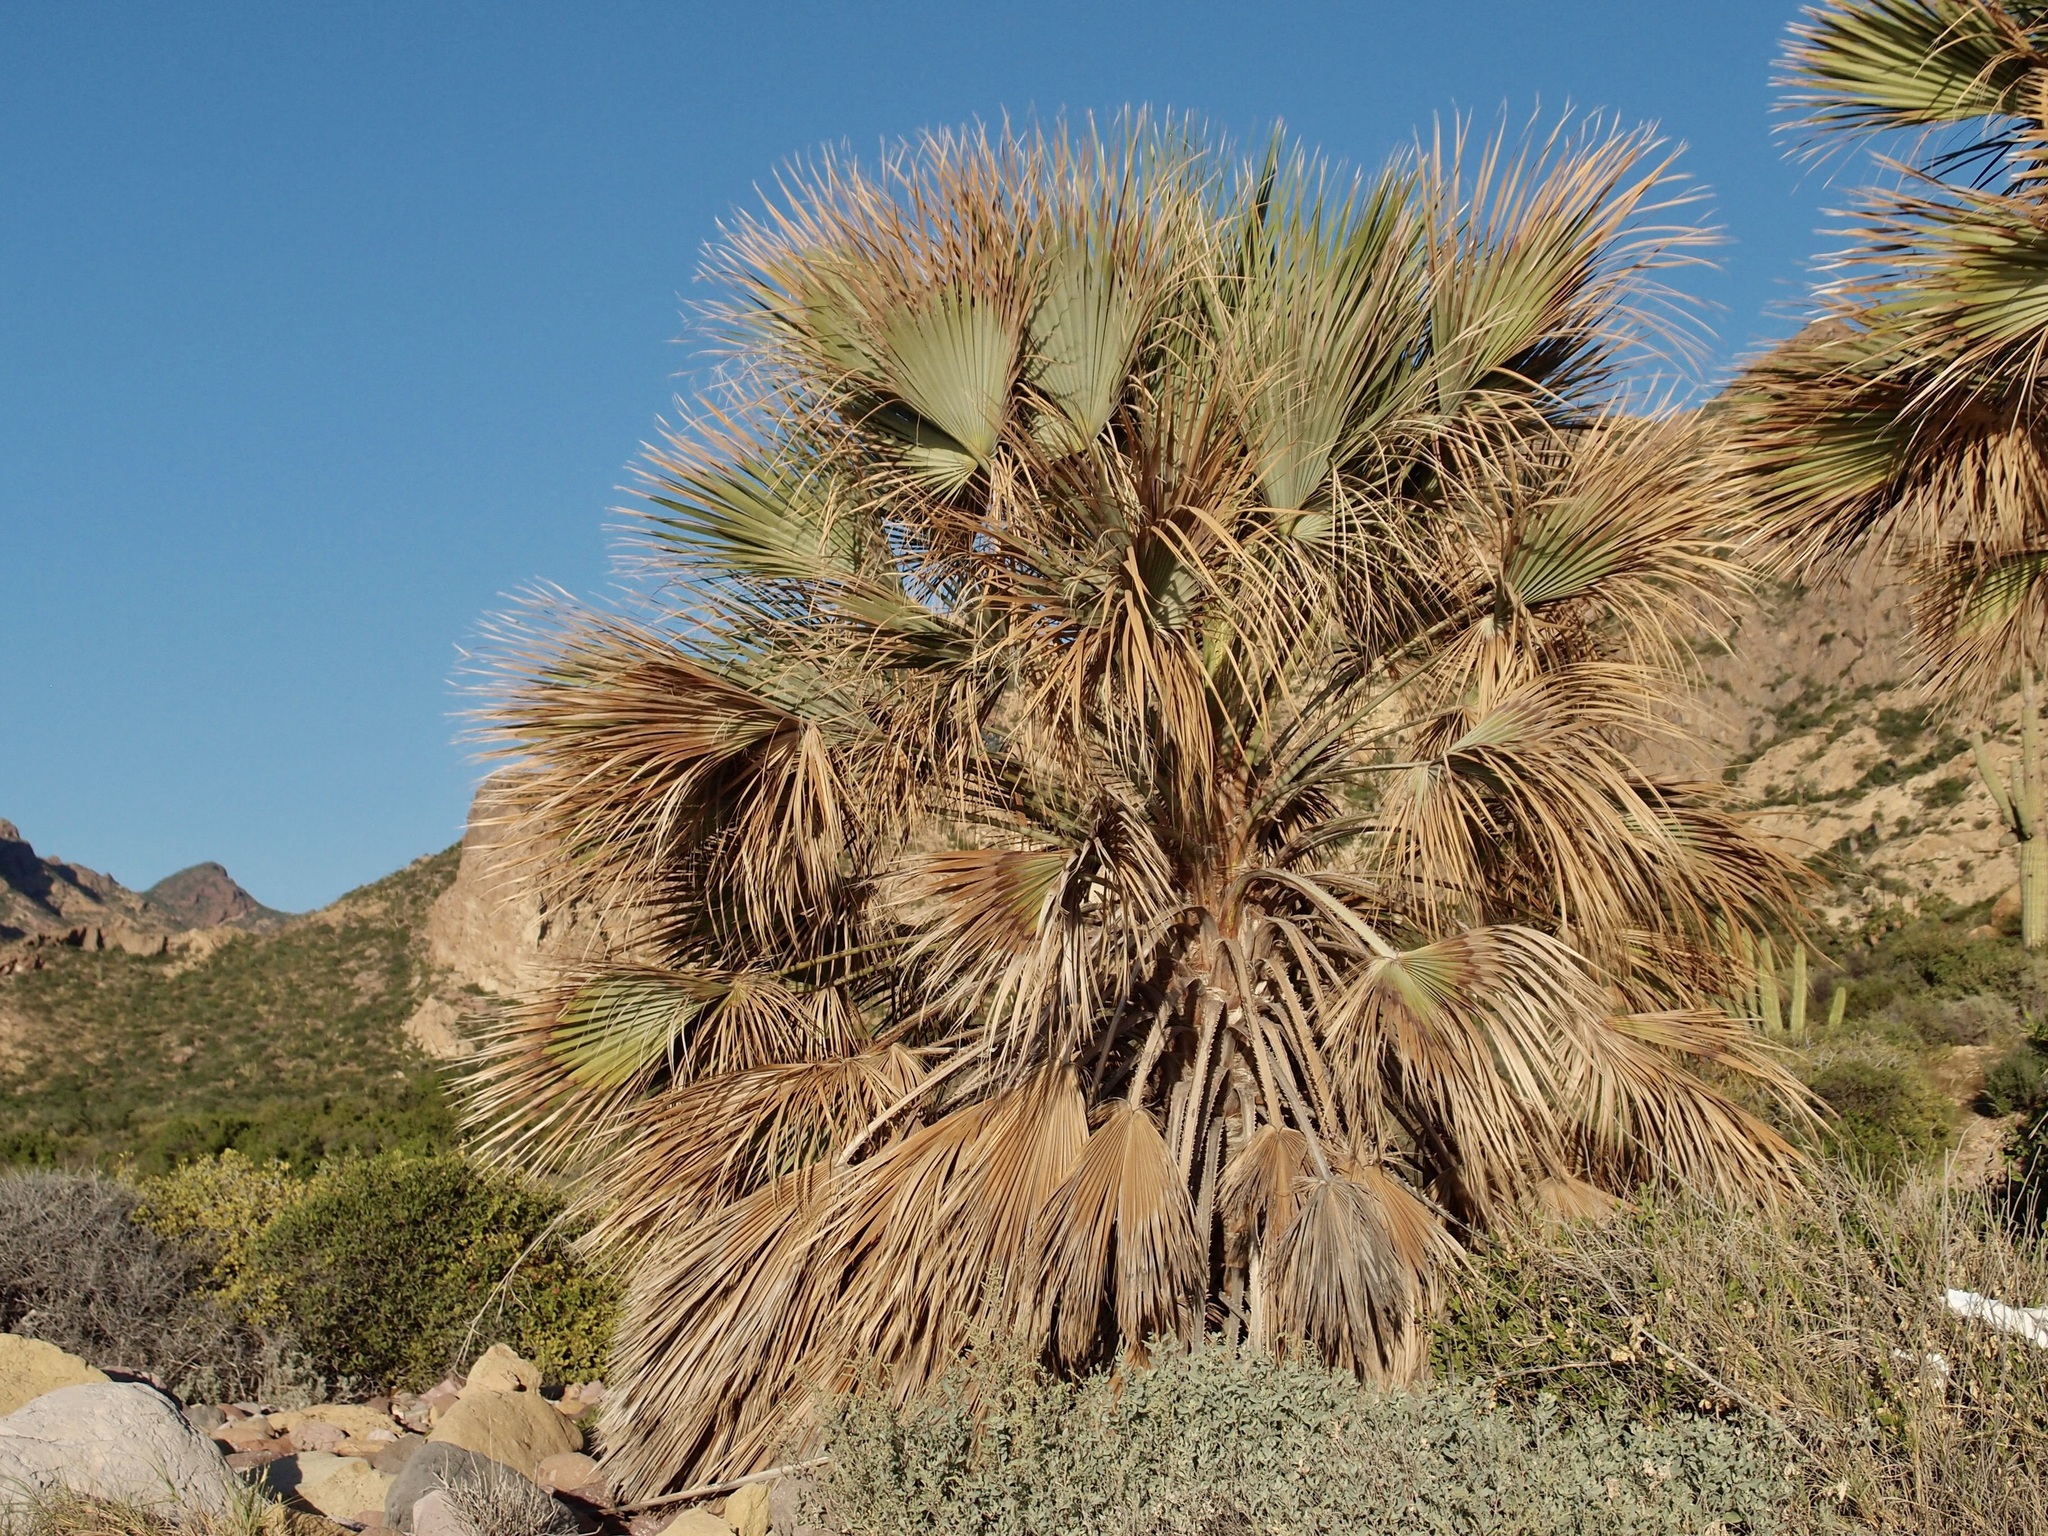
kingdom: Plantae
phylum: Tracheophyta
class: Liliopsida
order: Arecales
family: Arecaceae
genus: Brahea
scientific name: Brahea brandegeei
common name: San jose hesper palm
